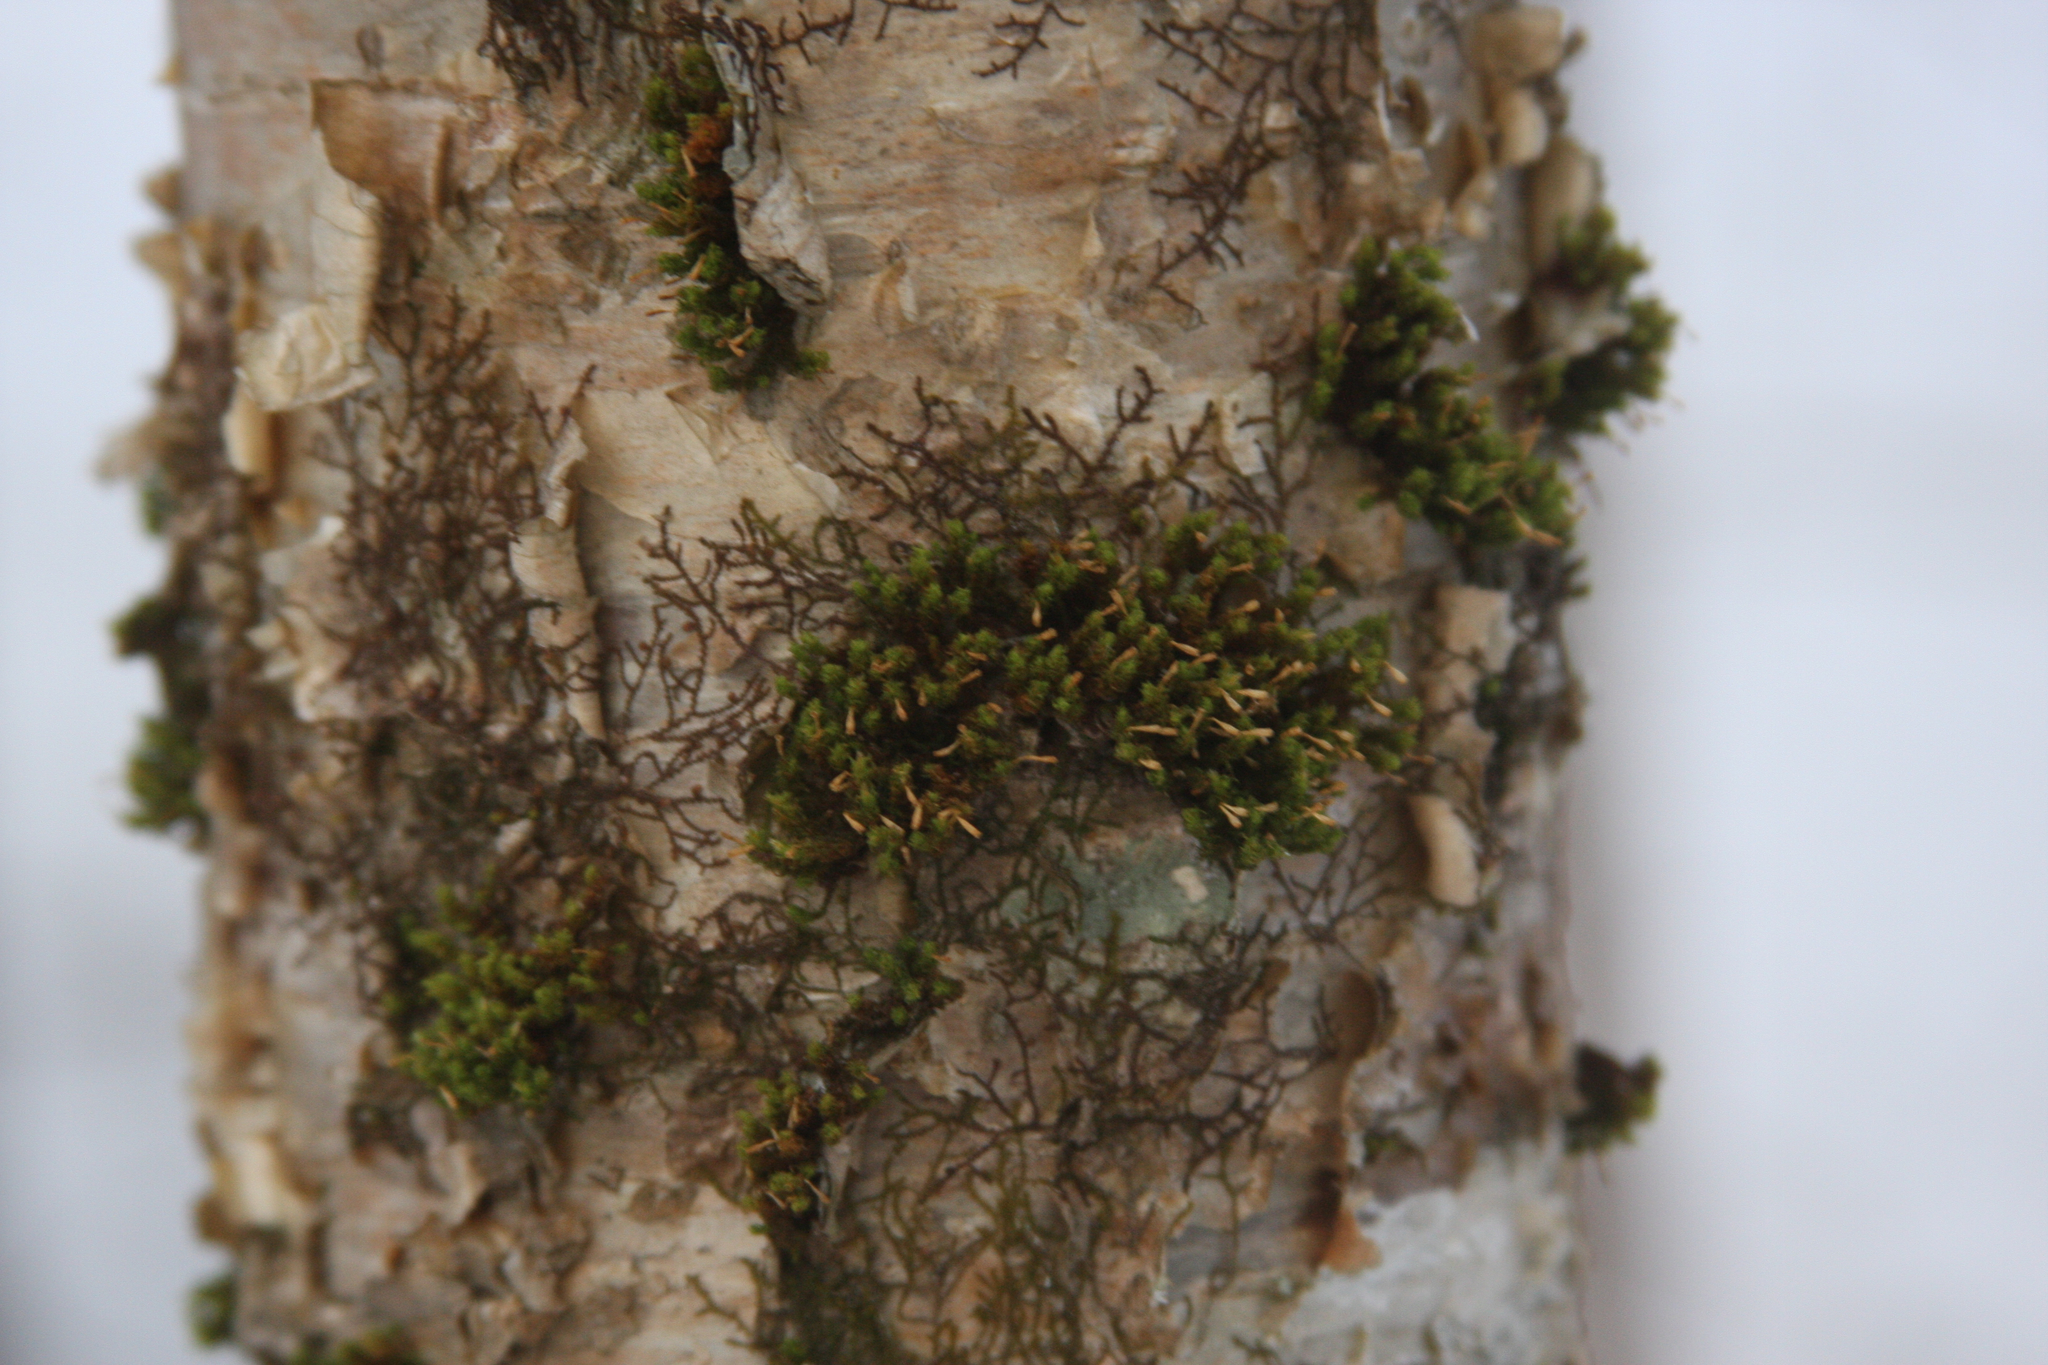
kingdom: Plantae
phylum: Bryophyta
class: Bryopsida
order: Orthotrichales
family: Orthotrichaceae
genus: Ulota
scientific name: Ulota crispa
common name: Crisped pincushion moss
